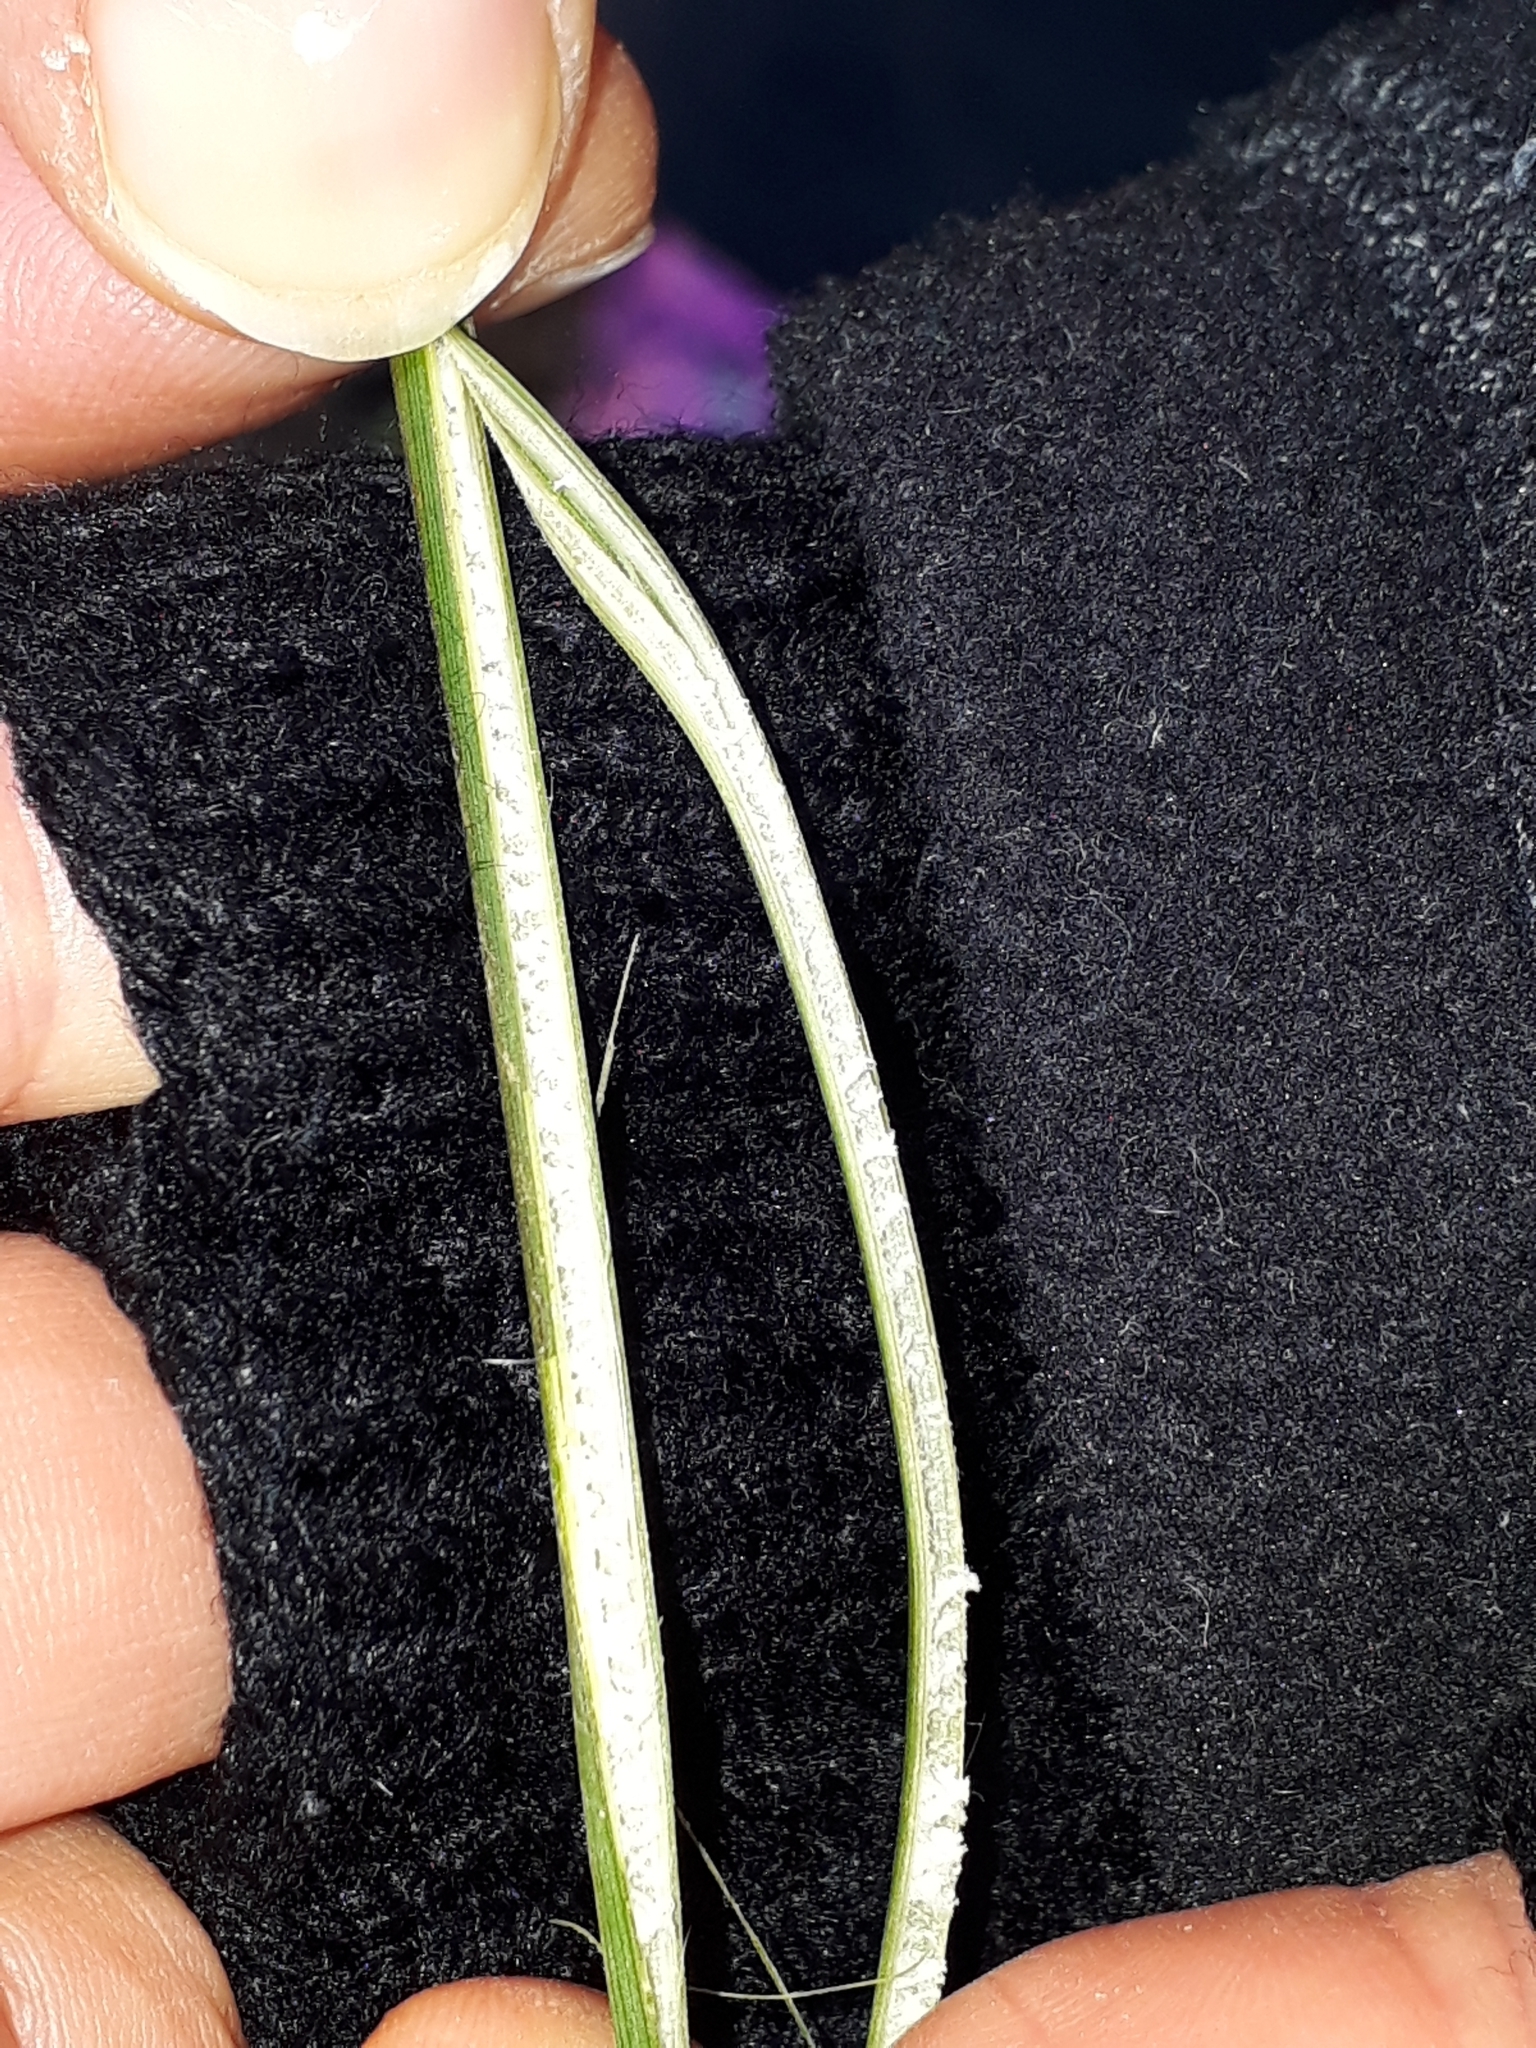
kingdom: Plantae
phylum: Tracheophyta
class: Liliopsida
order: Poales
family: Juncaceae
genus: Juncus
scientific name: Juncus sarophorus
